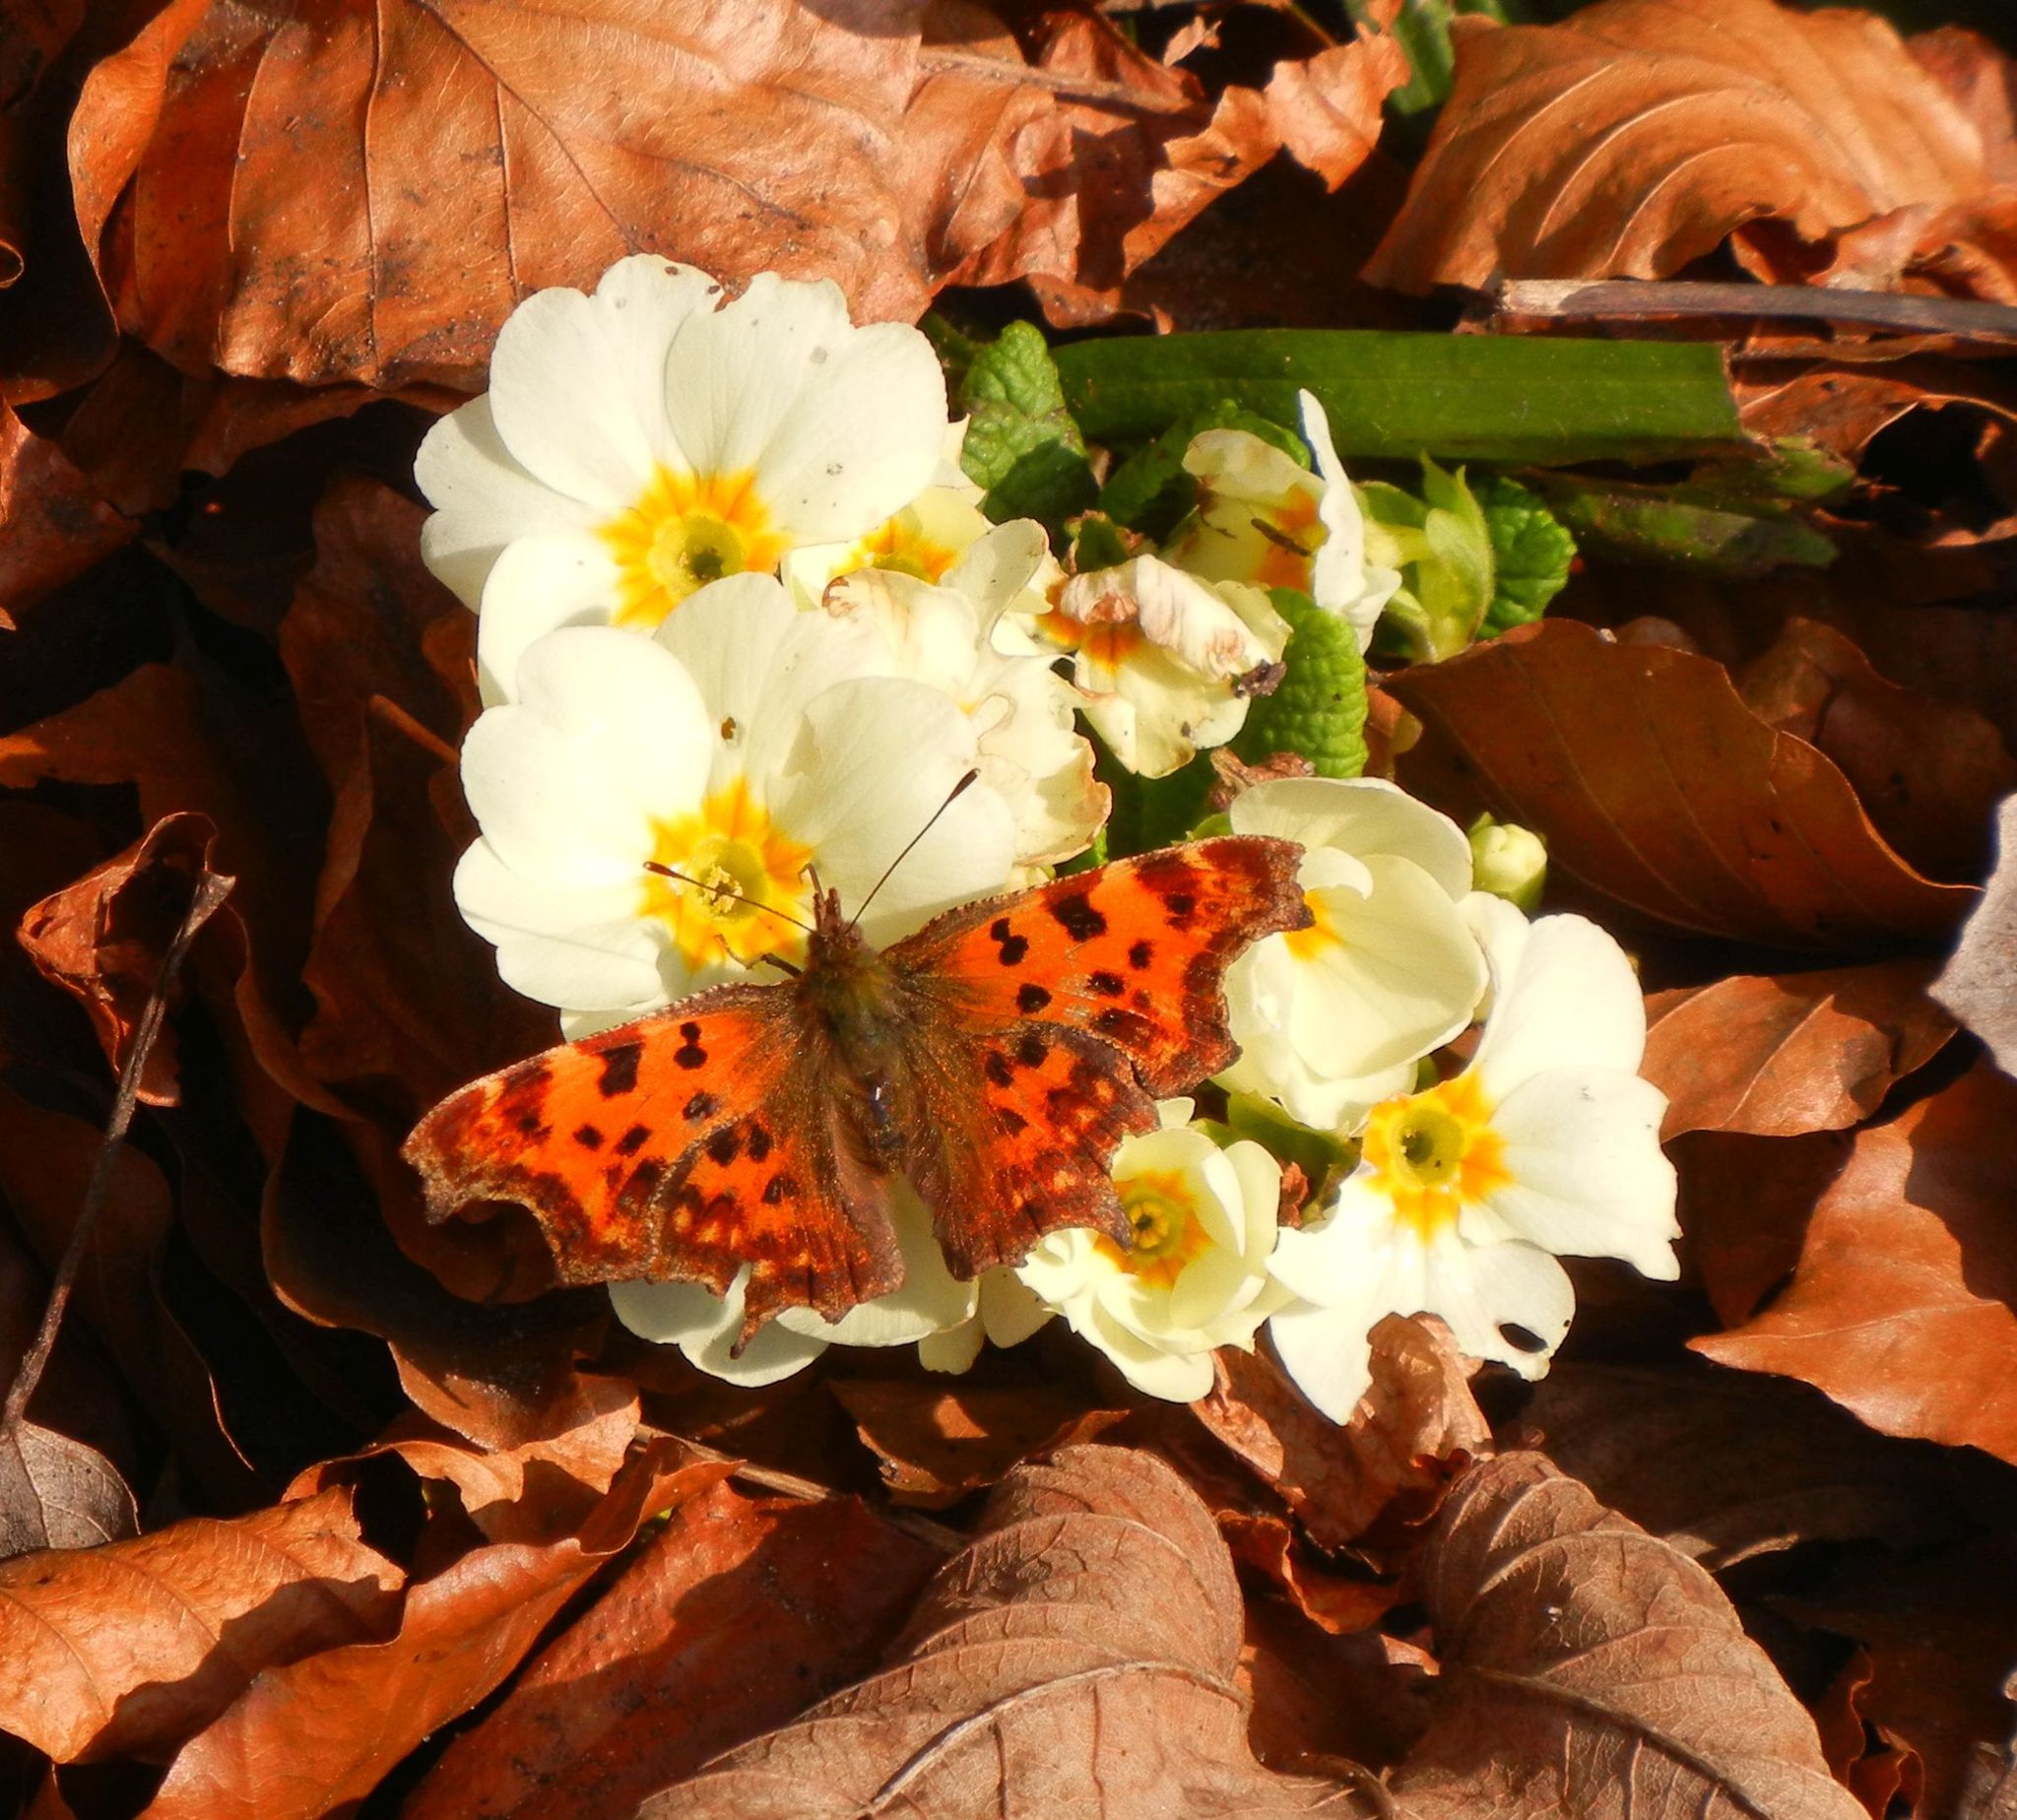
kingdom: Animalia
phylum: Arthropoda
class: Insecta
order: Lepidoptera
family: Nymphalidae
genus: Polygonia
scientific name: Polygonia c-album
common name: Comma
